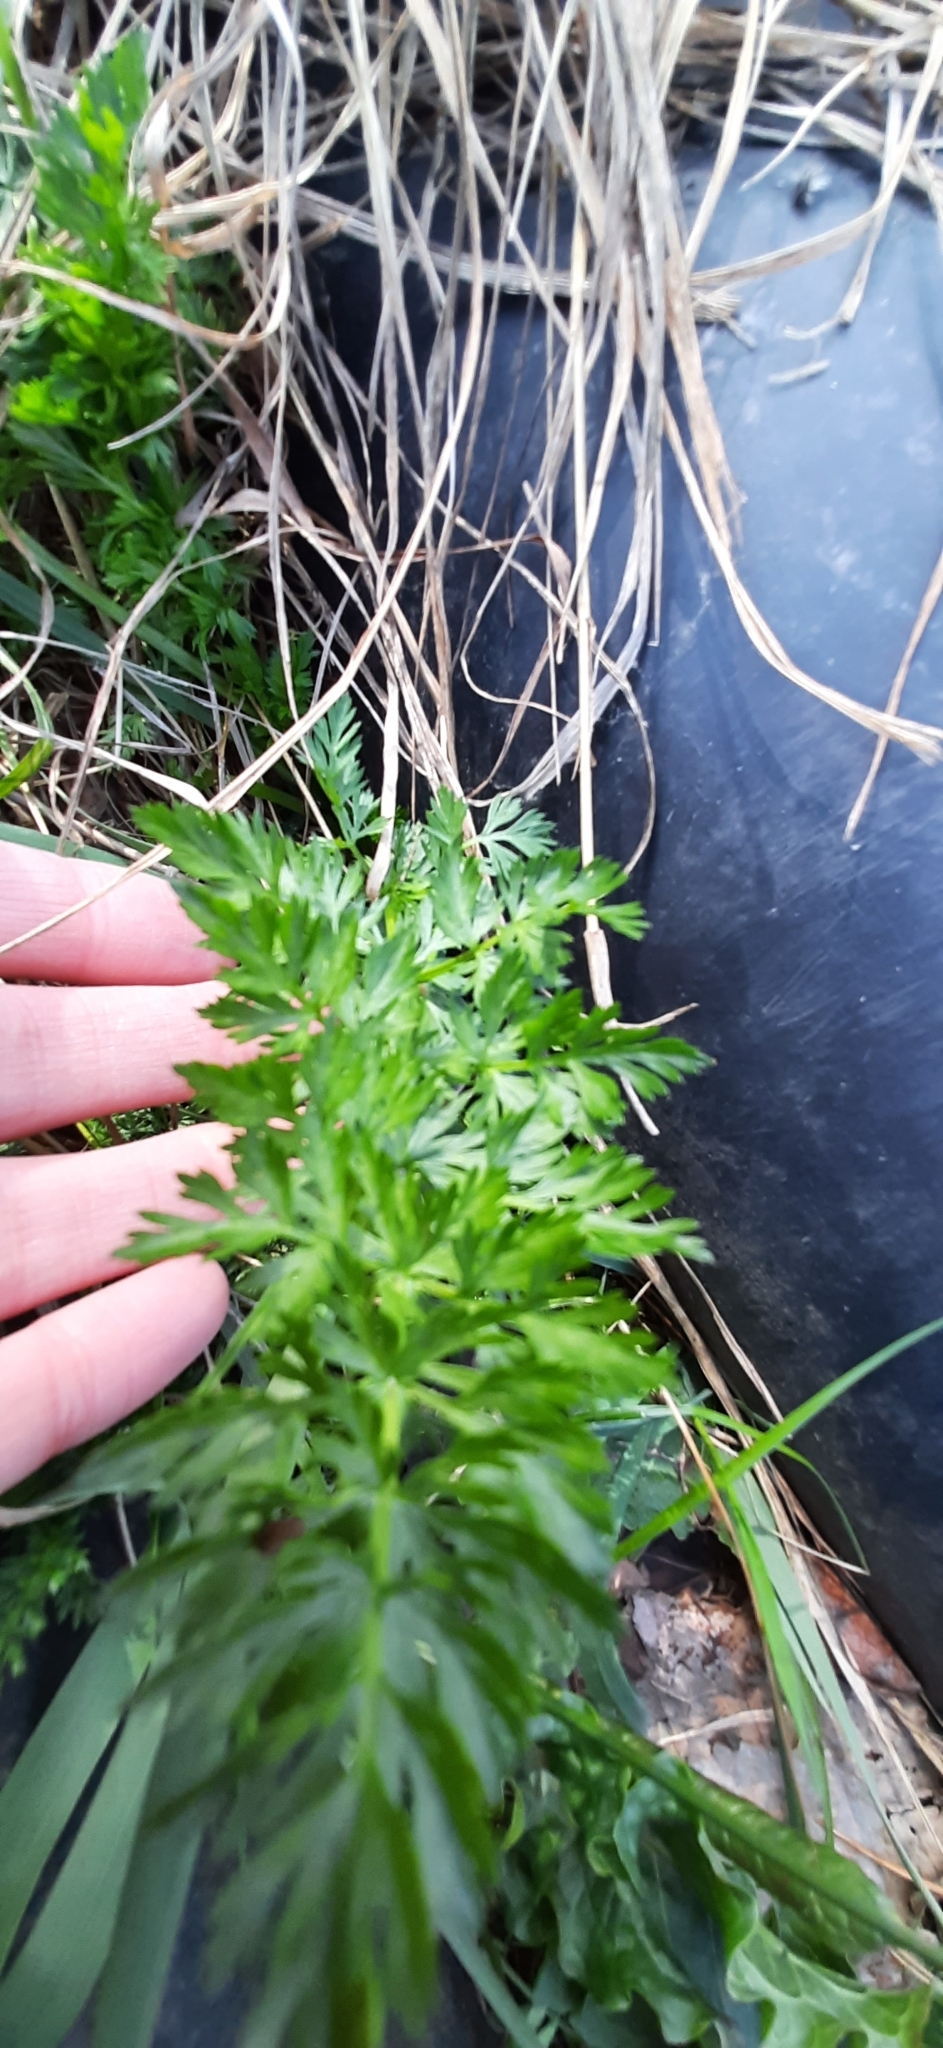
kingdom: Plantae
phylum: Tracheophyta
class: Magnoliopsida
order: Apiales
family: Apiaceae
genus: Carum
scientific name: Carum carvi
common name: Caraway
